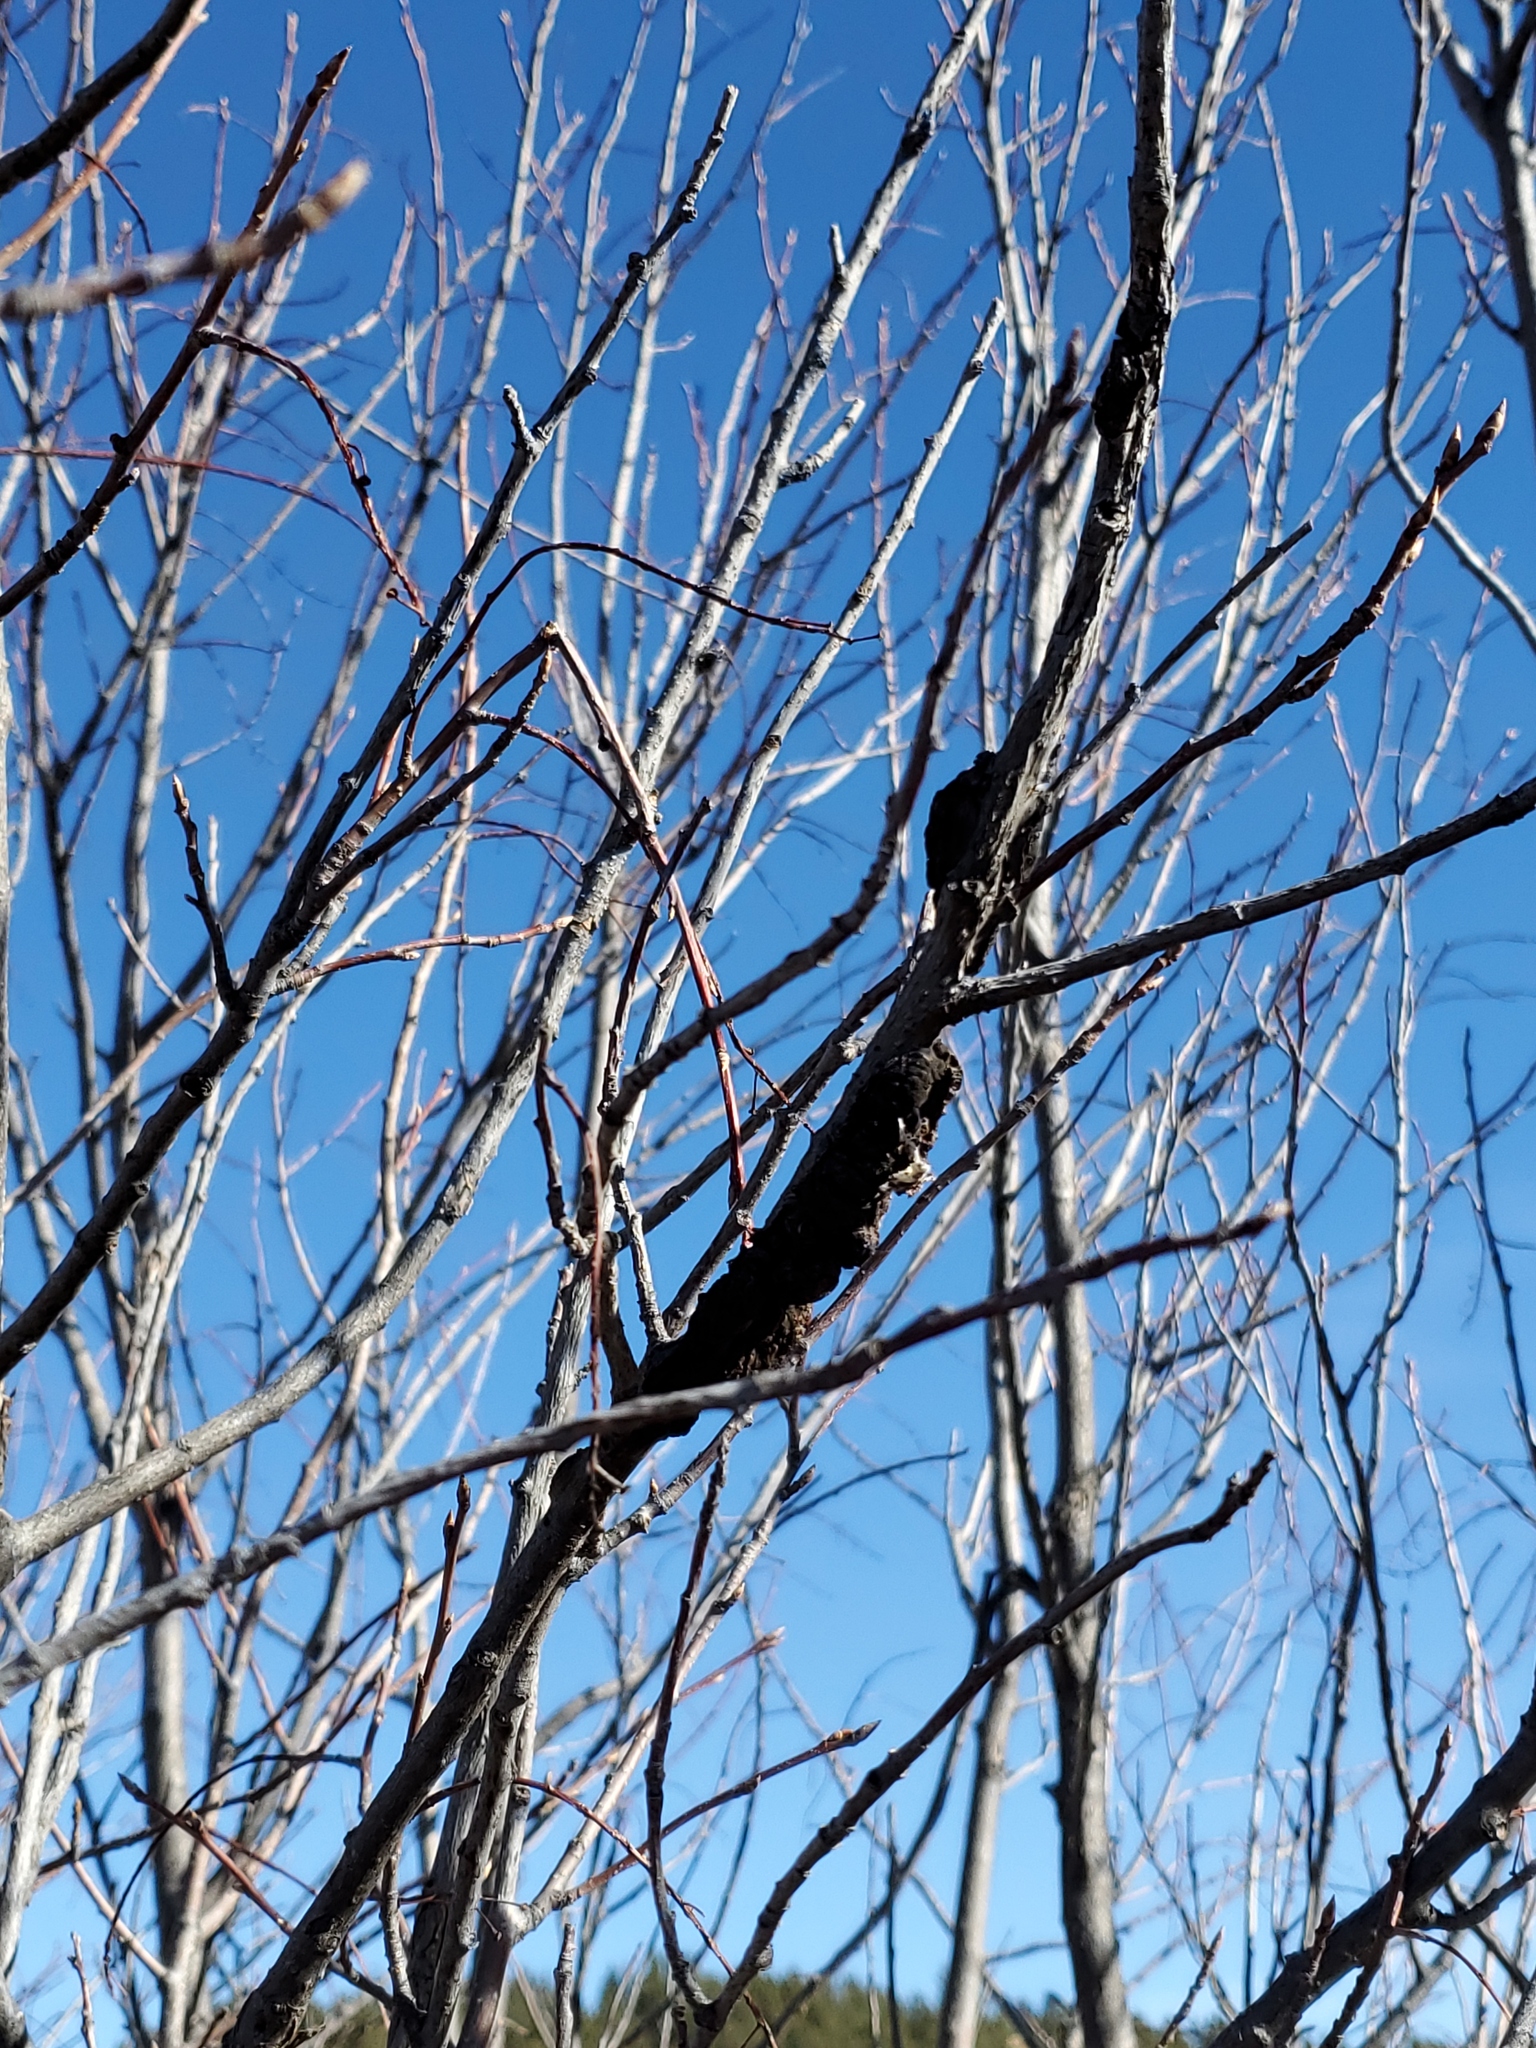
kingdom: Fungi
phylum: Ascomycota
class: Dothideomycetes
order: Venturiales
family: Venturiaceae
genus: Apiosporina
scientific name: Apiosporina morbosa
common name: Black knot
